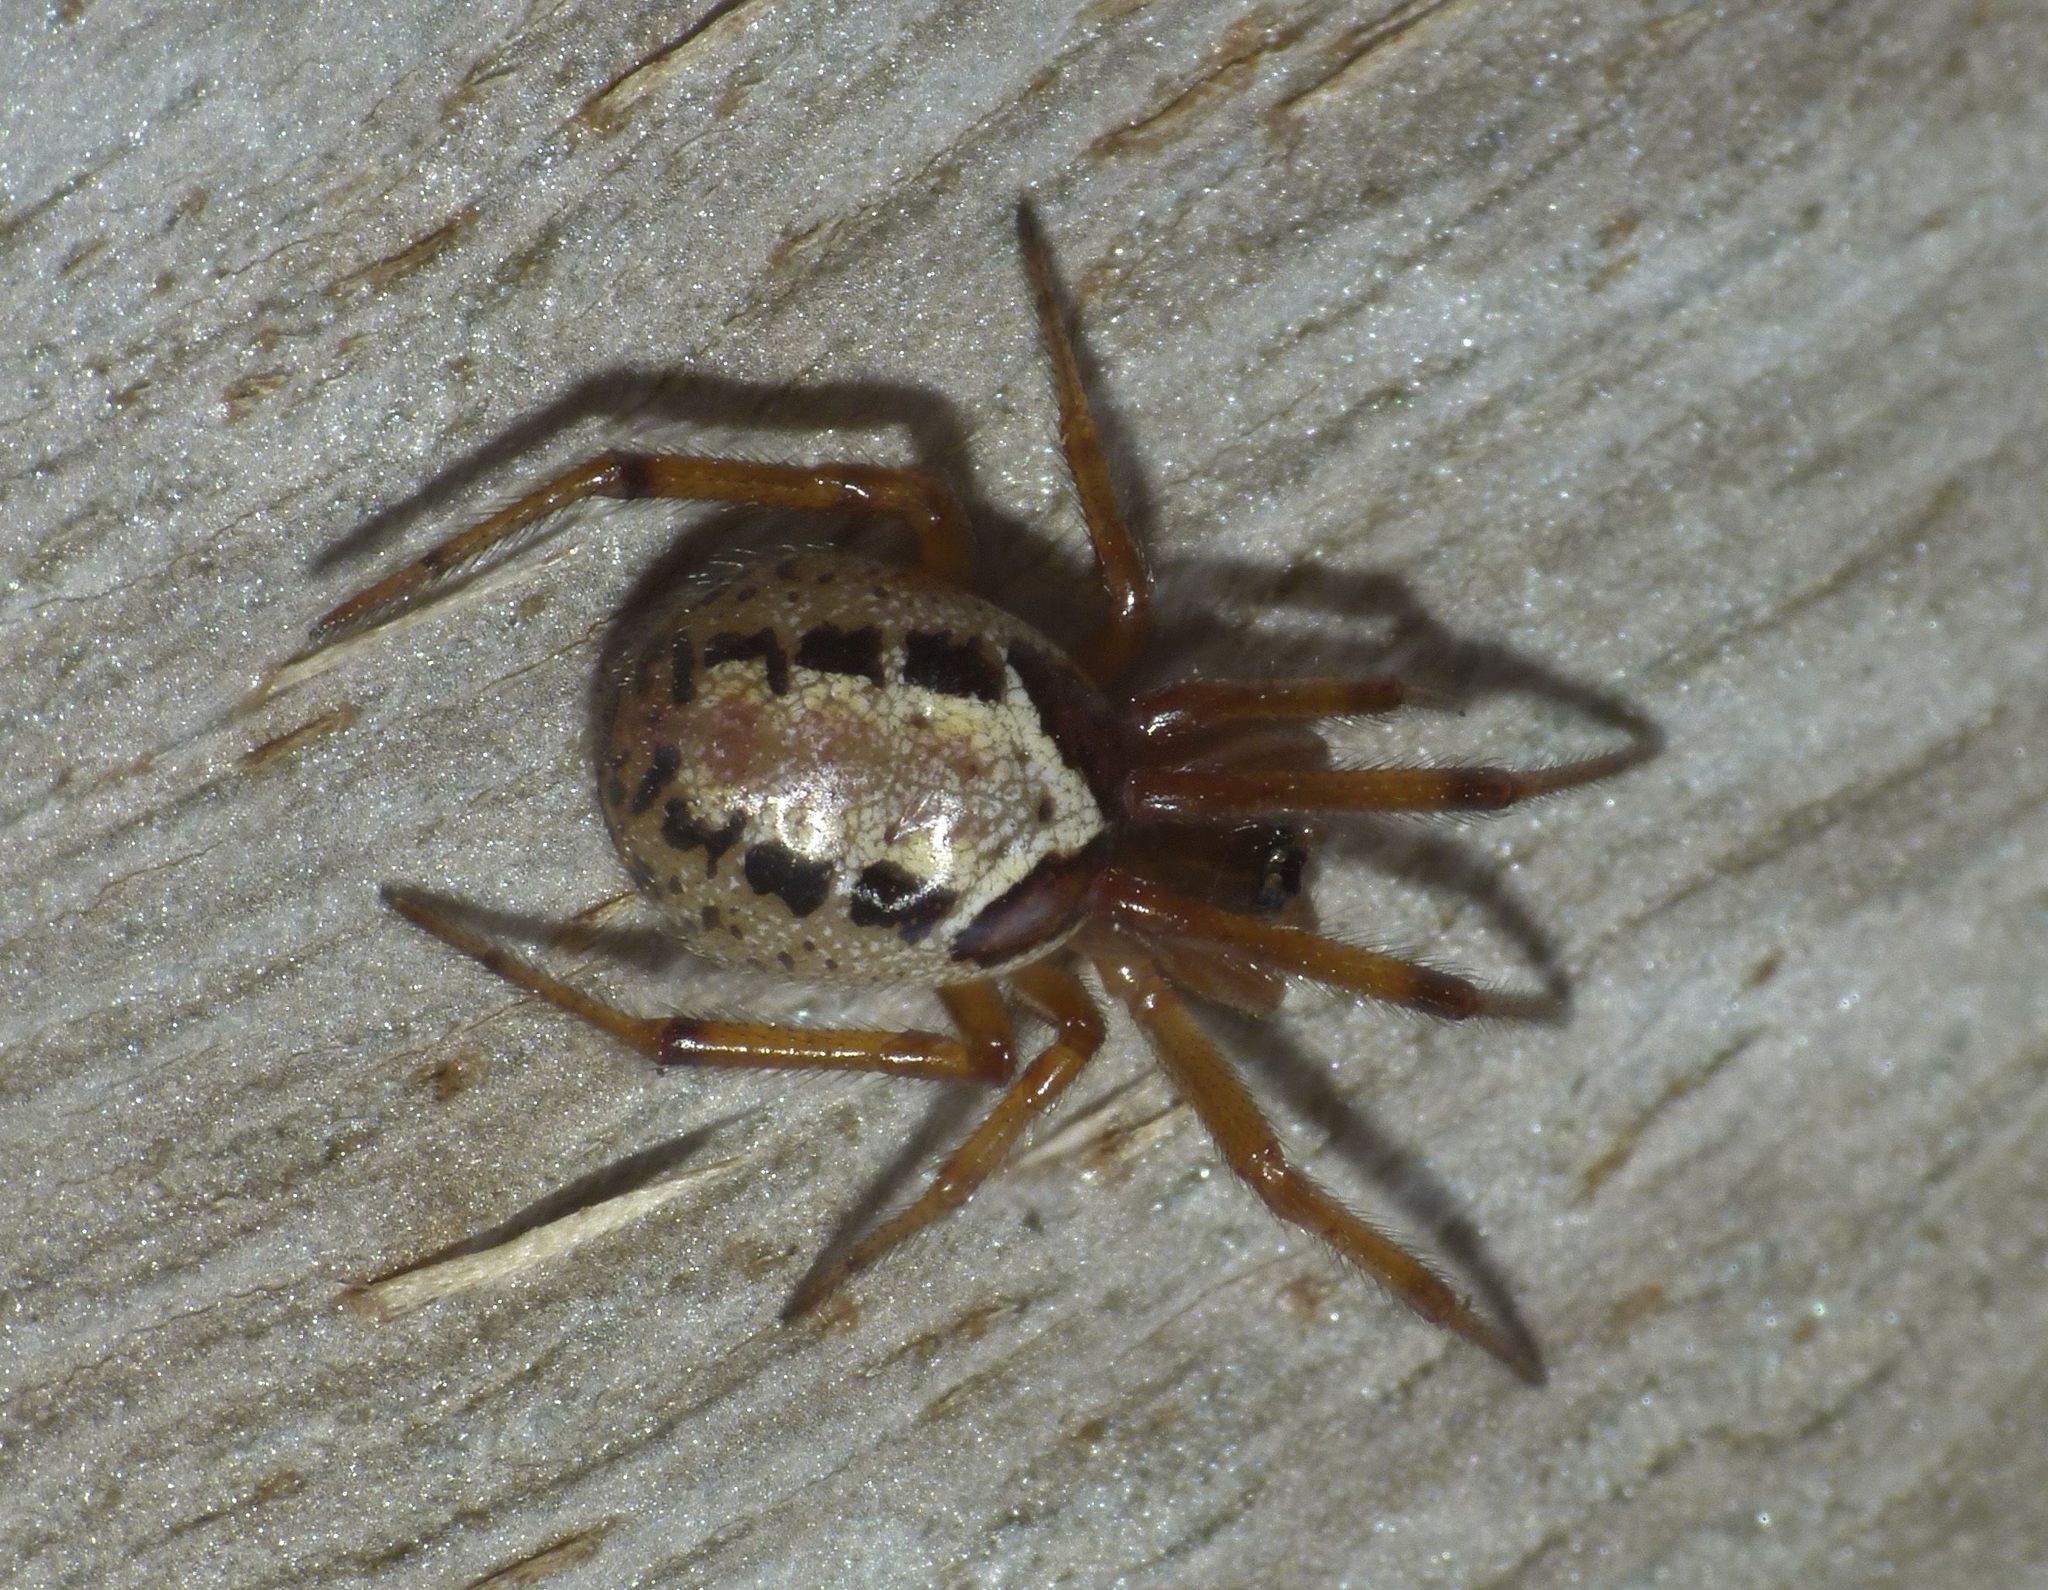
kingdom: Animalia
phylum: Arthropoda
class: Arachnida
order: Araneae
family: Theridiidae
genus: Steatoda
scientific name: Steatoda nobilis
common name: Cobweb weaver
